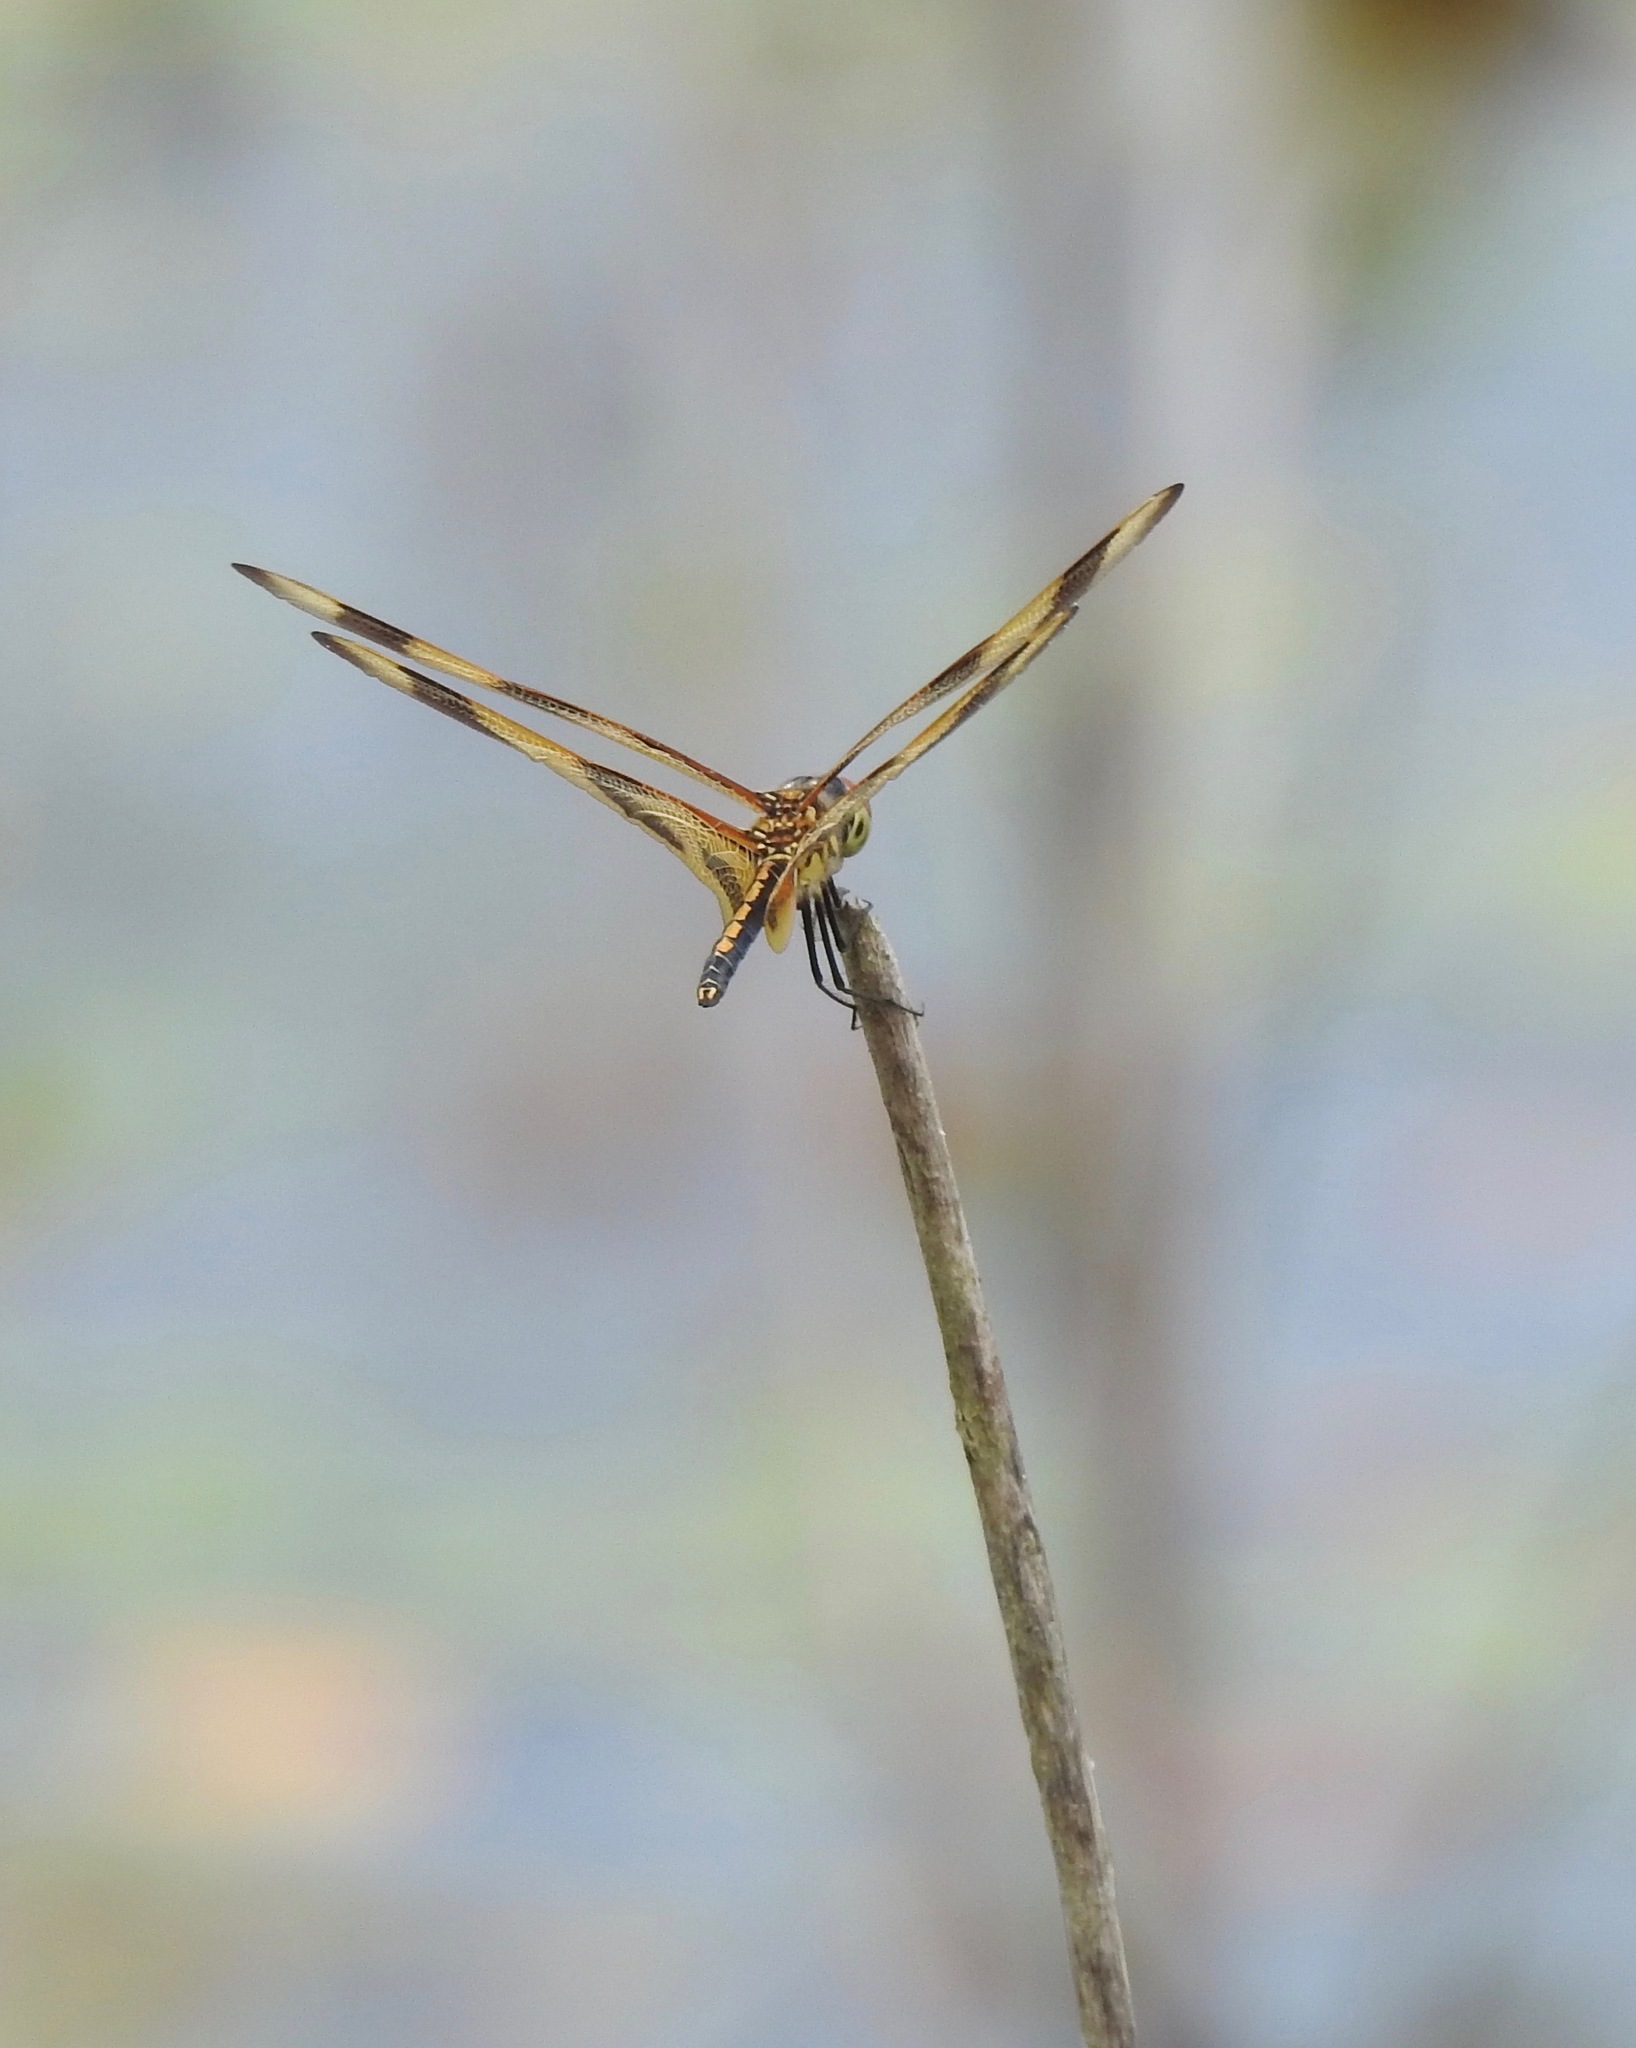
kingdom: Animalia
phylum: Arthropoda
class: Insecta
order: Odonata
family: Libellulidae
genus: Celithemis
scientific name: Celithemis eponina
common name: Halloween pennant
